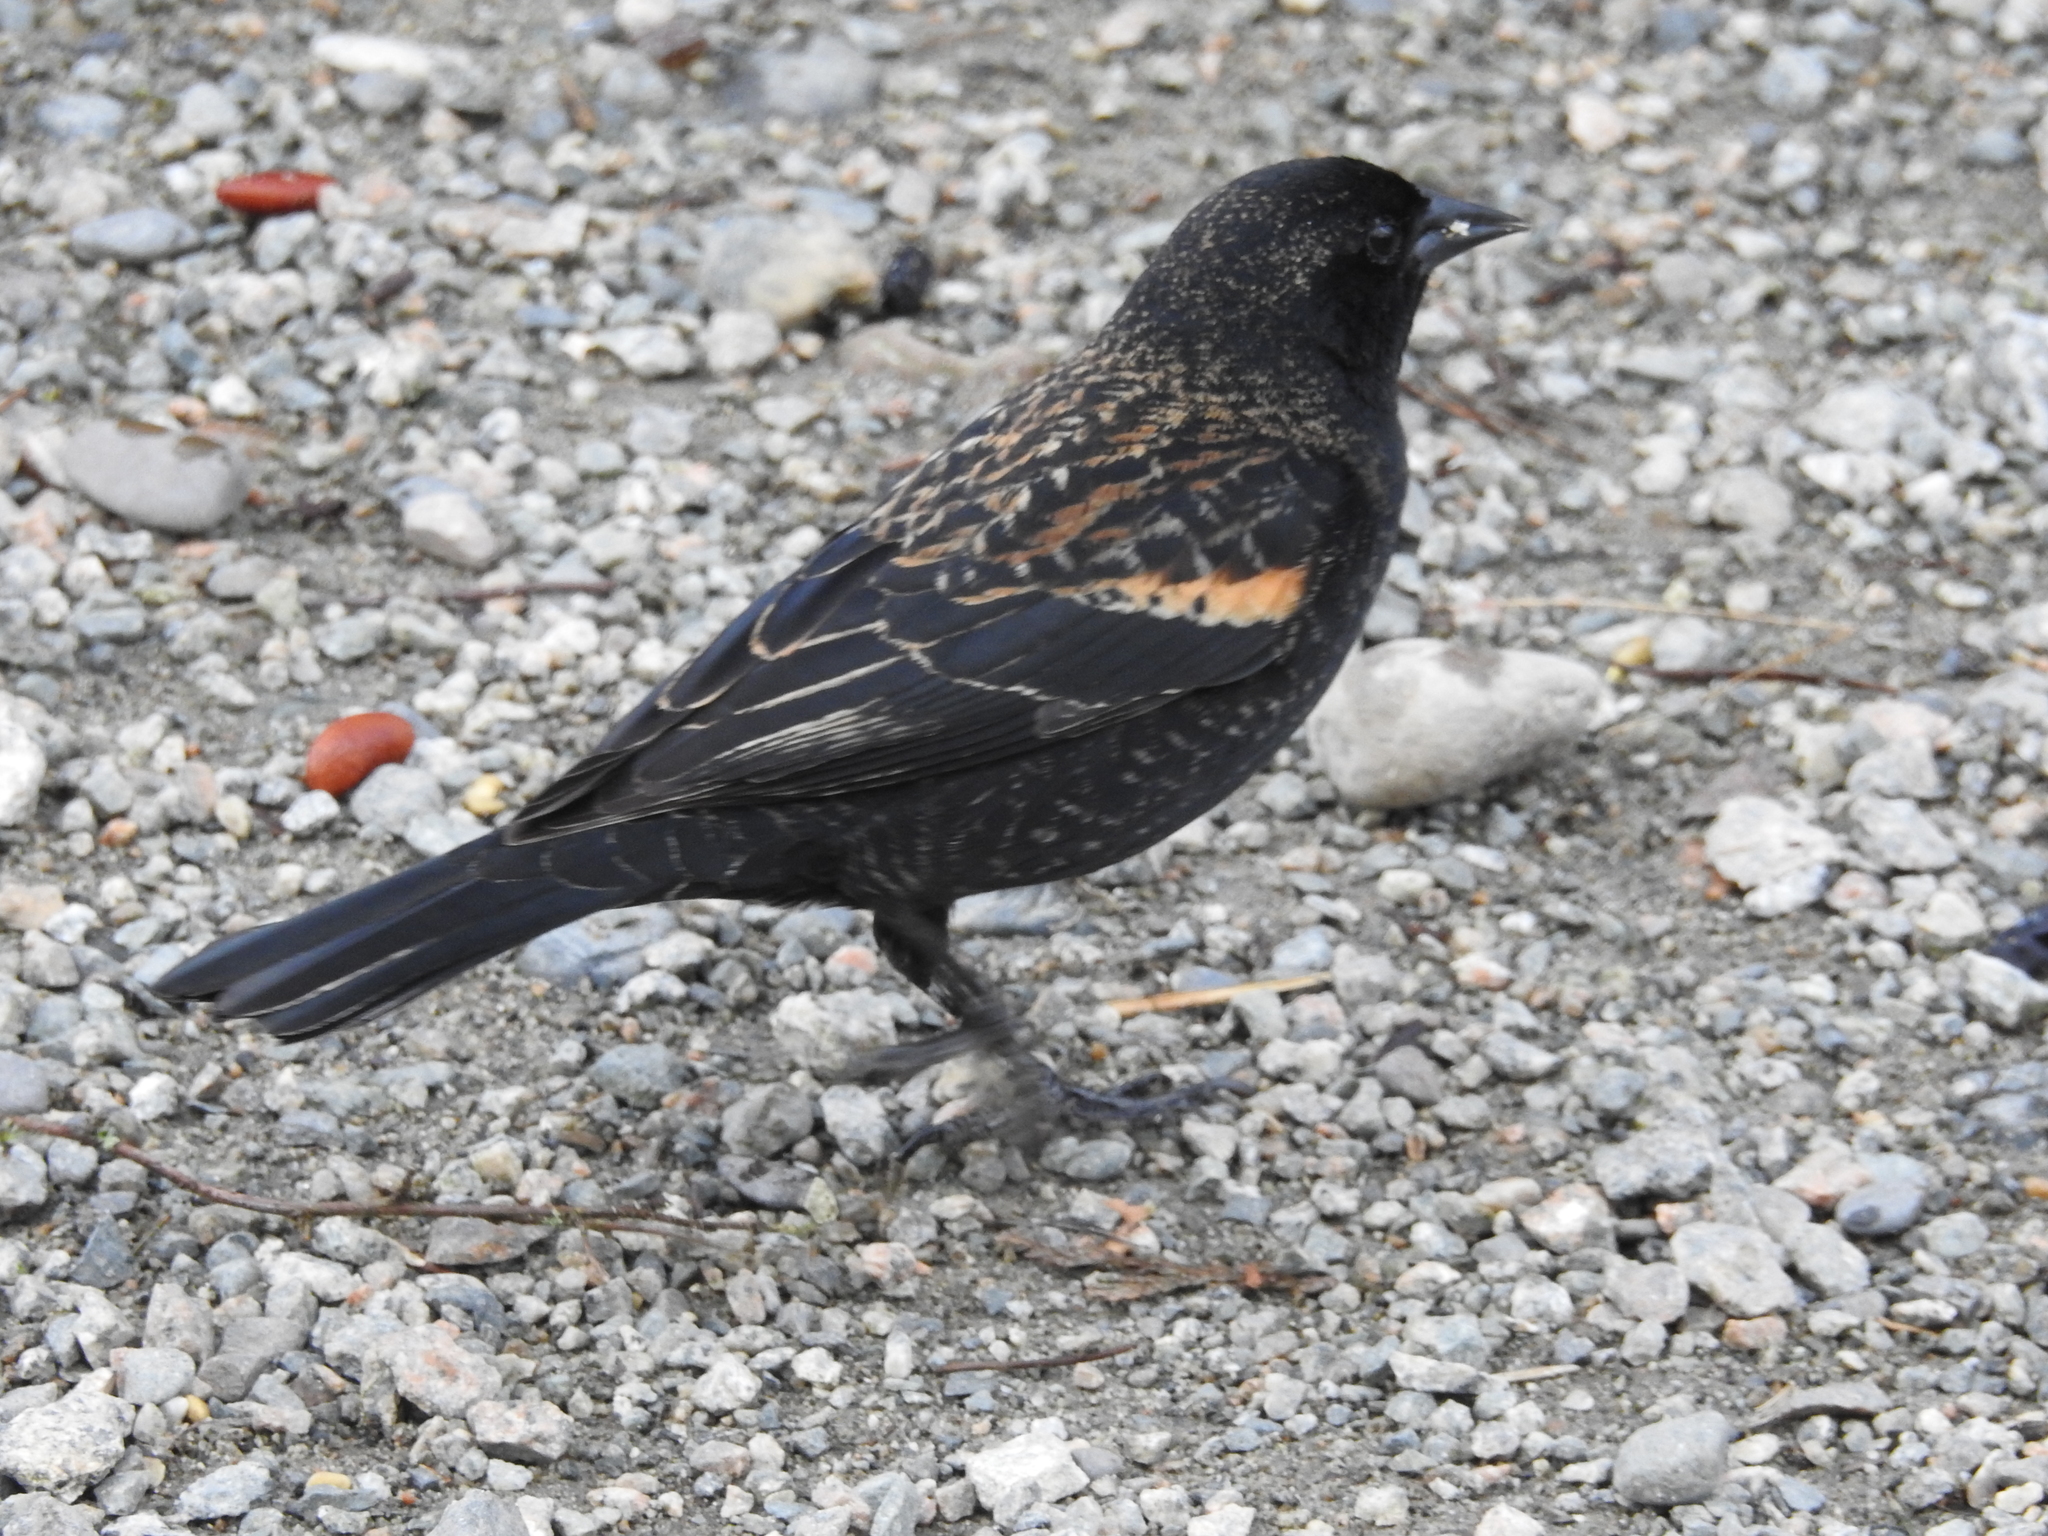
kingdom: Animalia
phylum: Chordata
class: Aves
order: Passeriformes
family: Icteridae
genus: Agelaius
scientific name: Agelaius phoeniceus
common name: Red-winged blackbird
